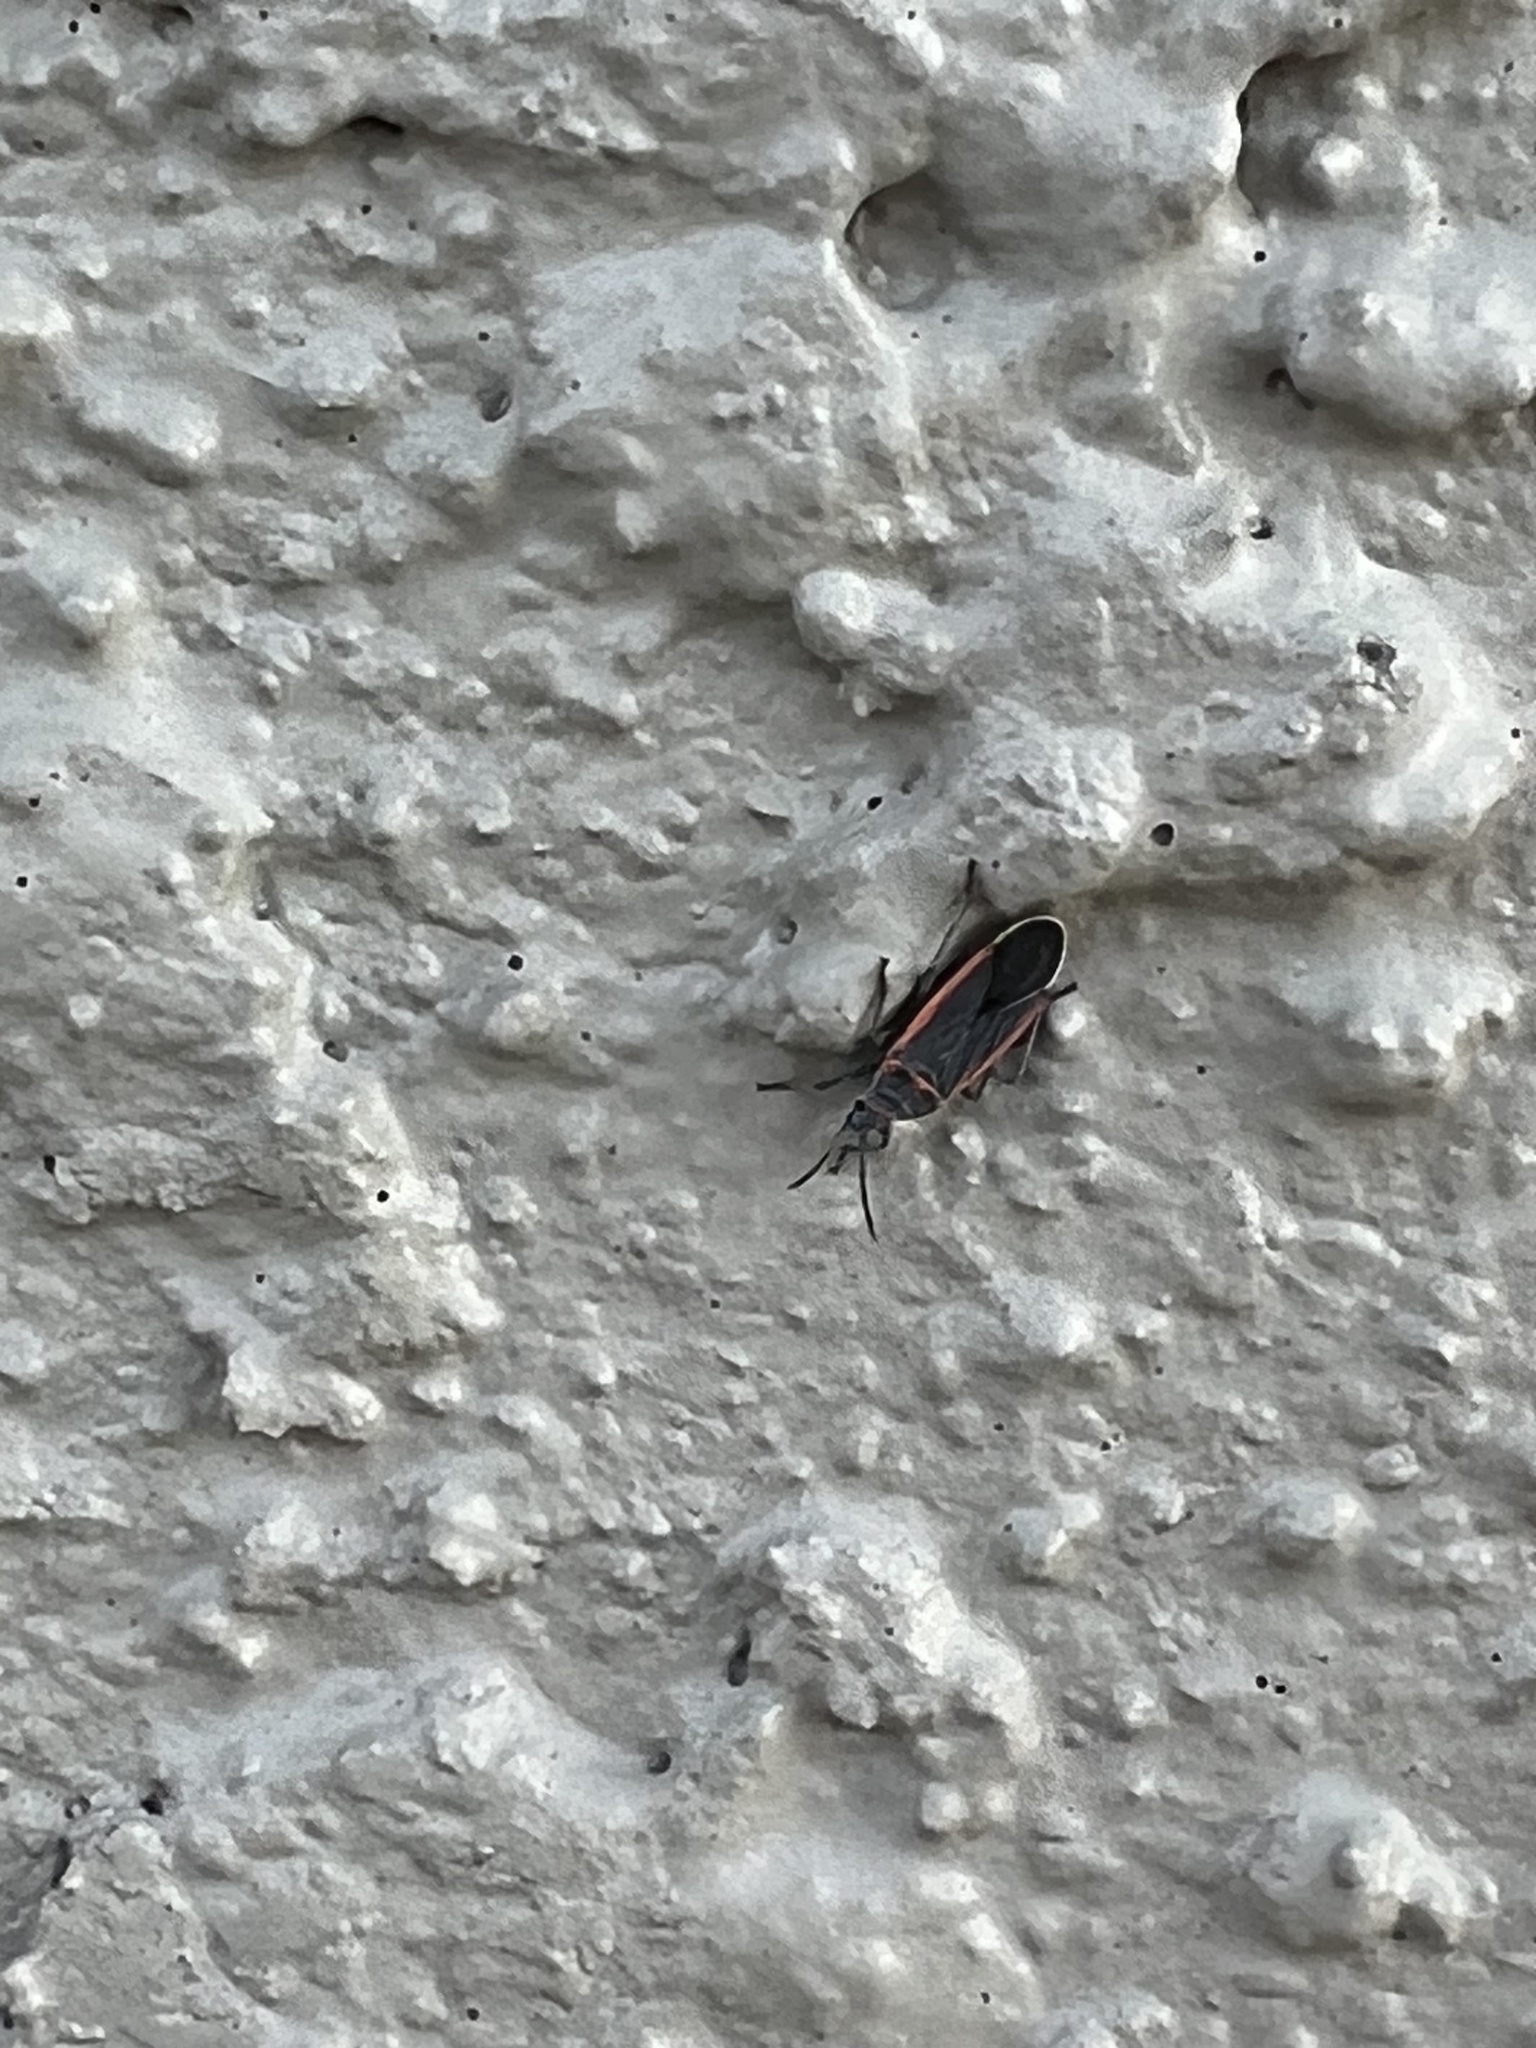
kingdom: Animalia
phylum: Arthropoda
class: Insecta
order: Hemiptera
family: Lygaeidae
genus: Melacoryphus
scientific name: Melacoryphus lateralis
